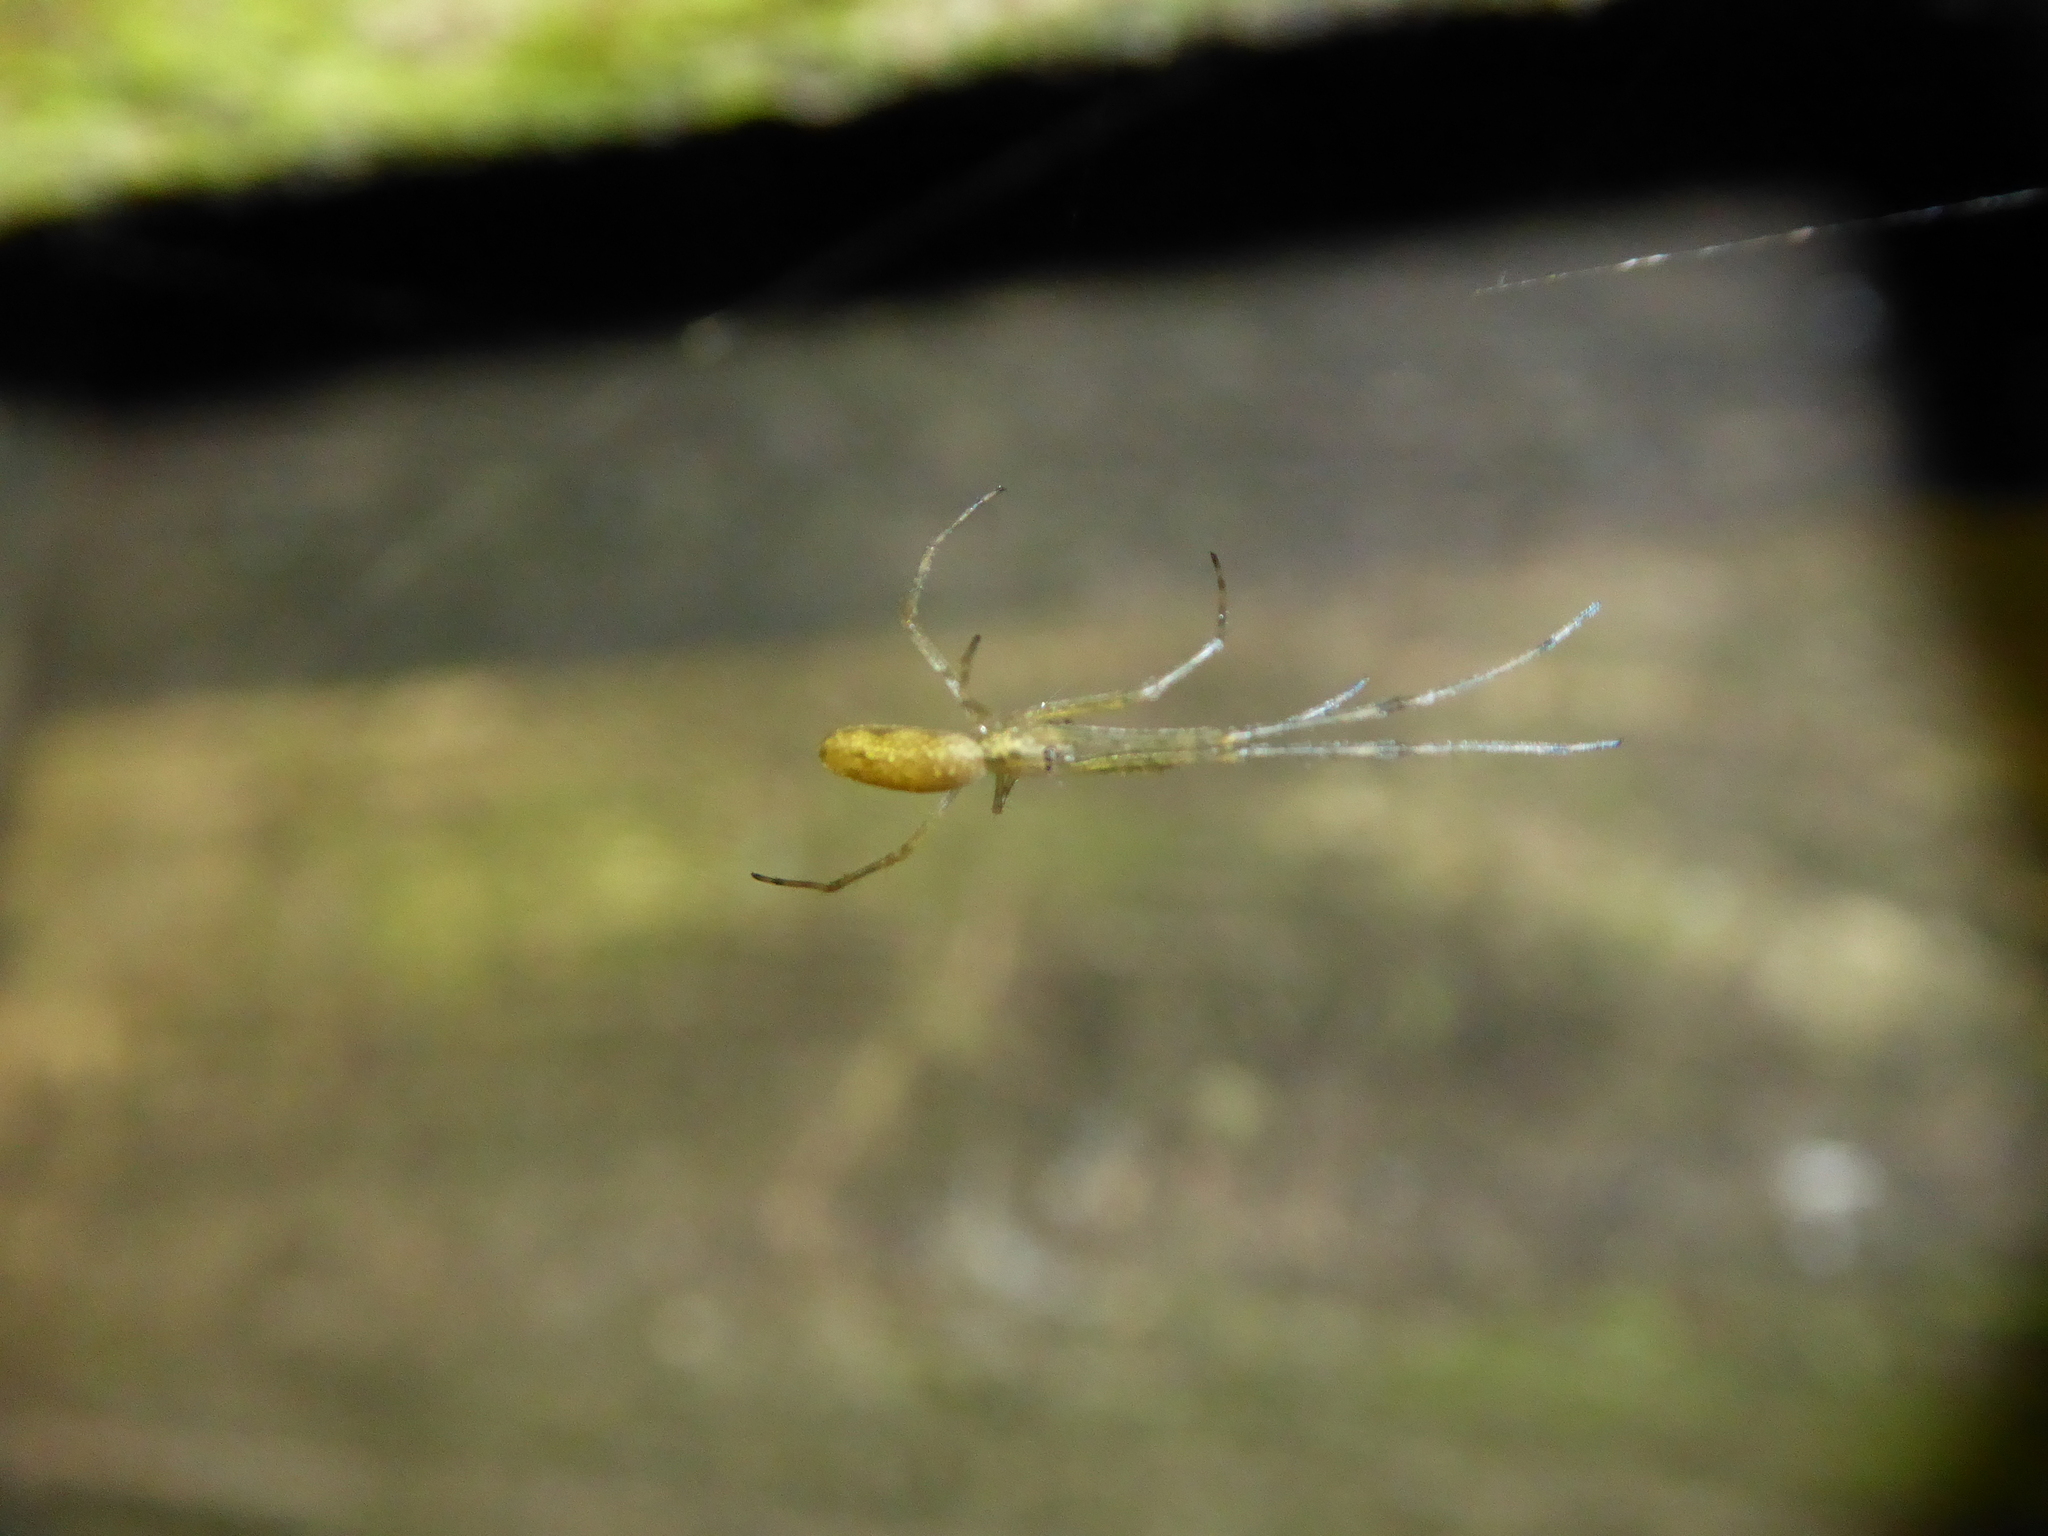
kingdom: Animalia
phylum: Arthropoda
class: Arachnida
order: Araneae
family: Tetragnathidae
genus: Tetragnatha
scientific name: Tetragnatha
